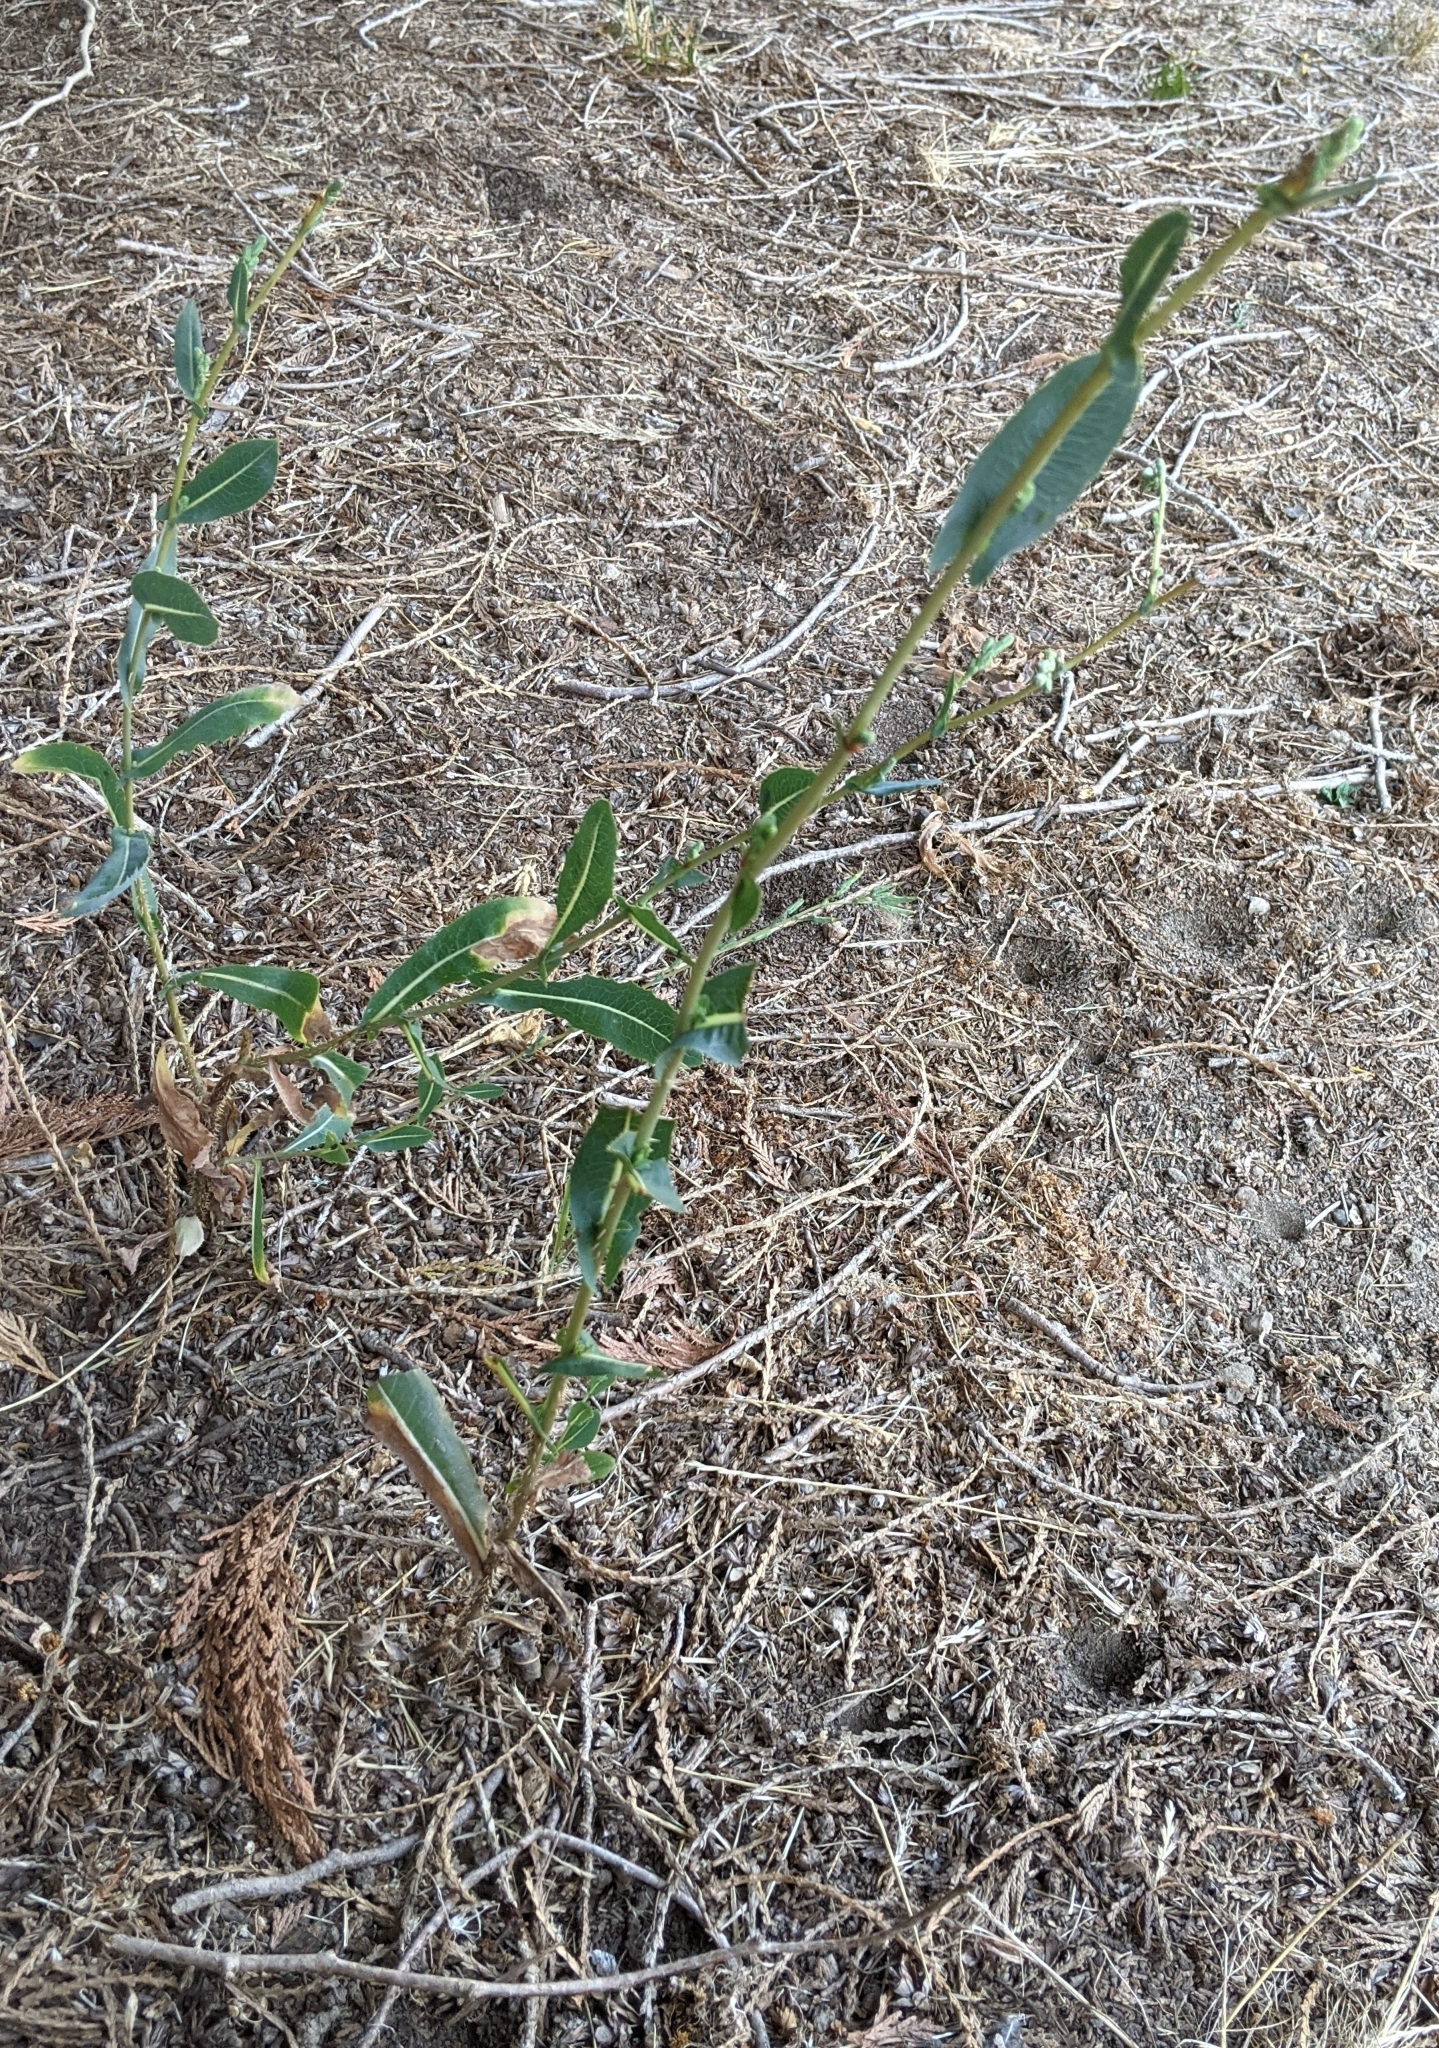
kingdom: Plantae
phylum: Tracheophyta
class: Magnoliopsida
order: Asterales
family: Asteraceae
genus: Lactuca
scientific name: Lactuca serriola
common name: Prickly lettuce
